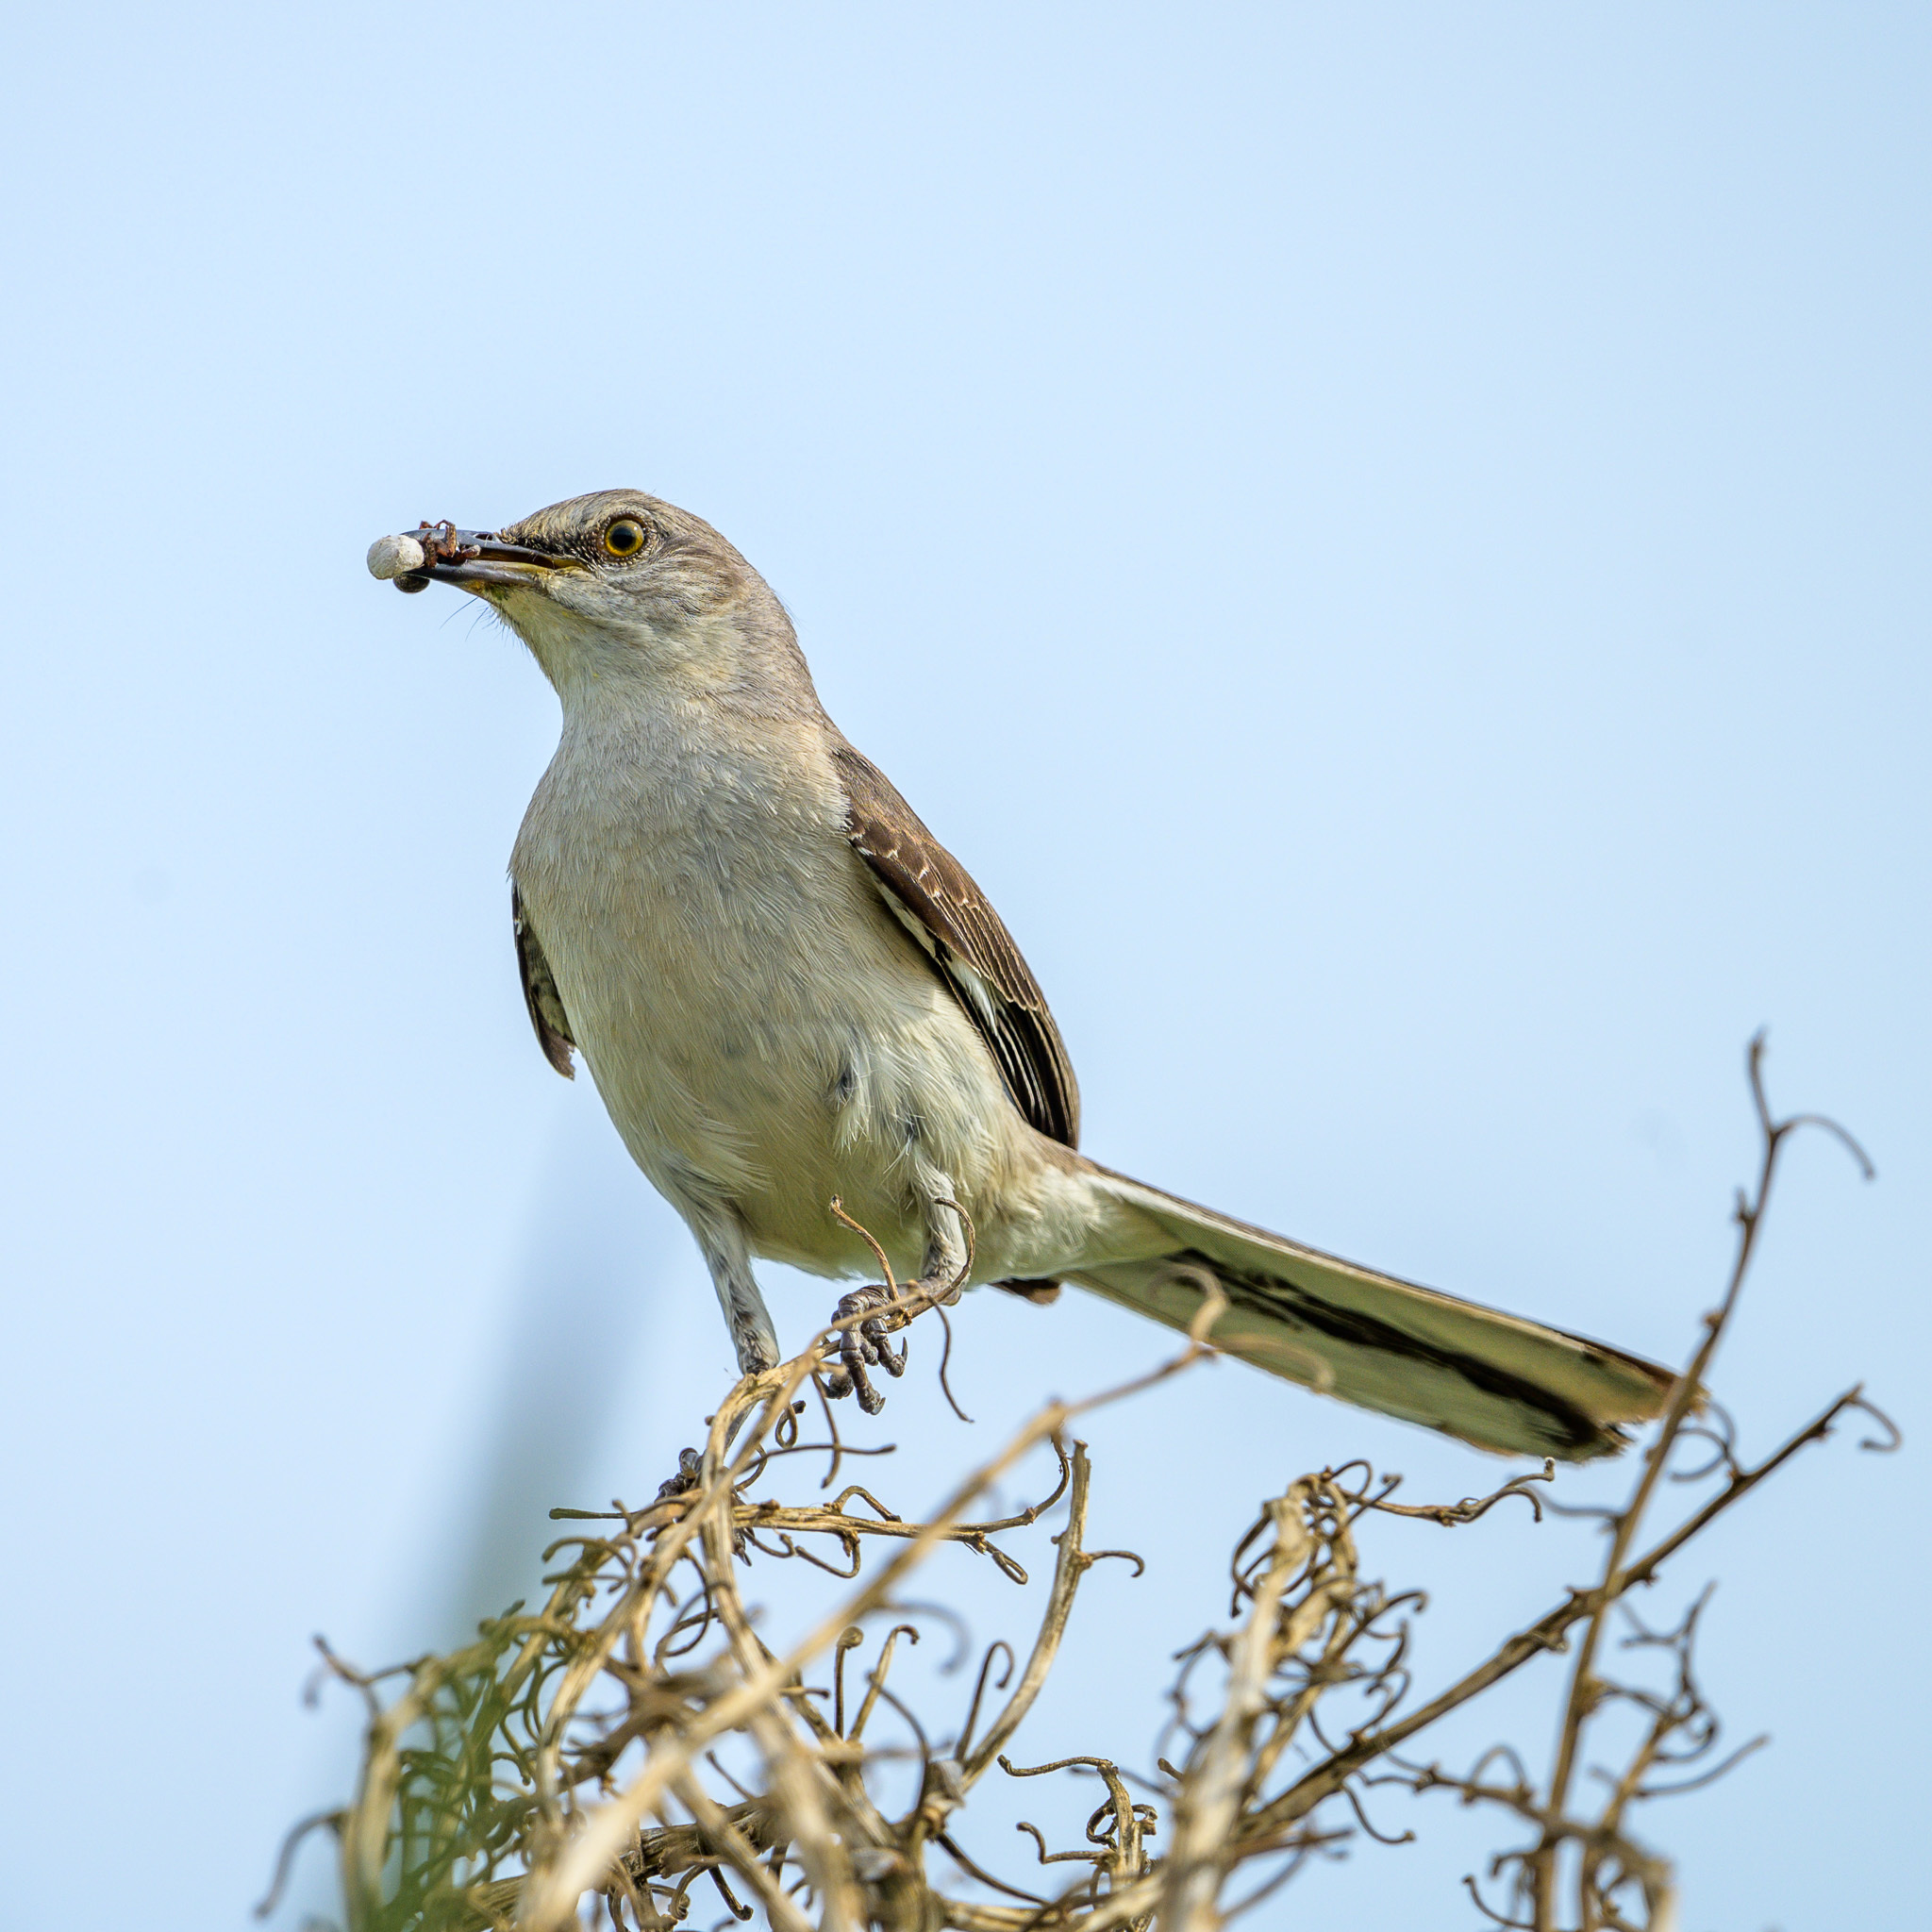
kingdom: Animalia
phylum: Chordata
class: Aves
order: Passeriformes
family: Mimidae
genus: Mimus
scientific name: Mimus polyglottos
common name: Northern mockingbird
